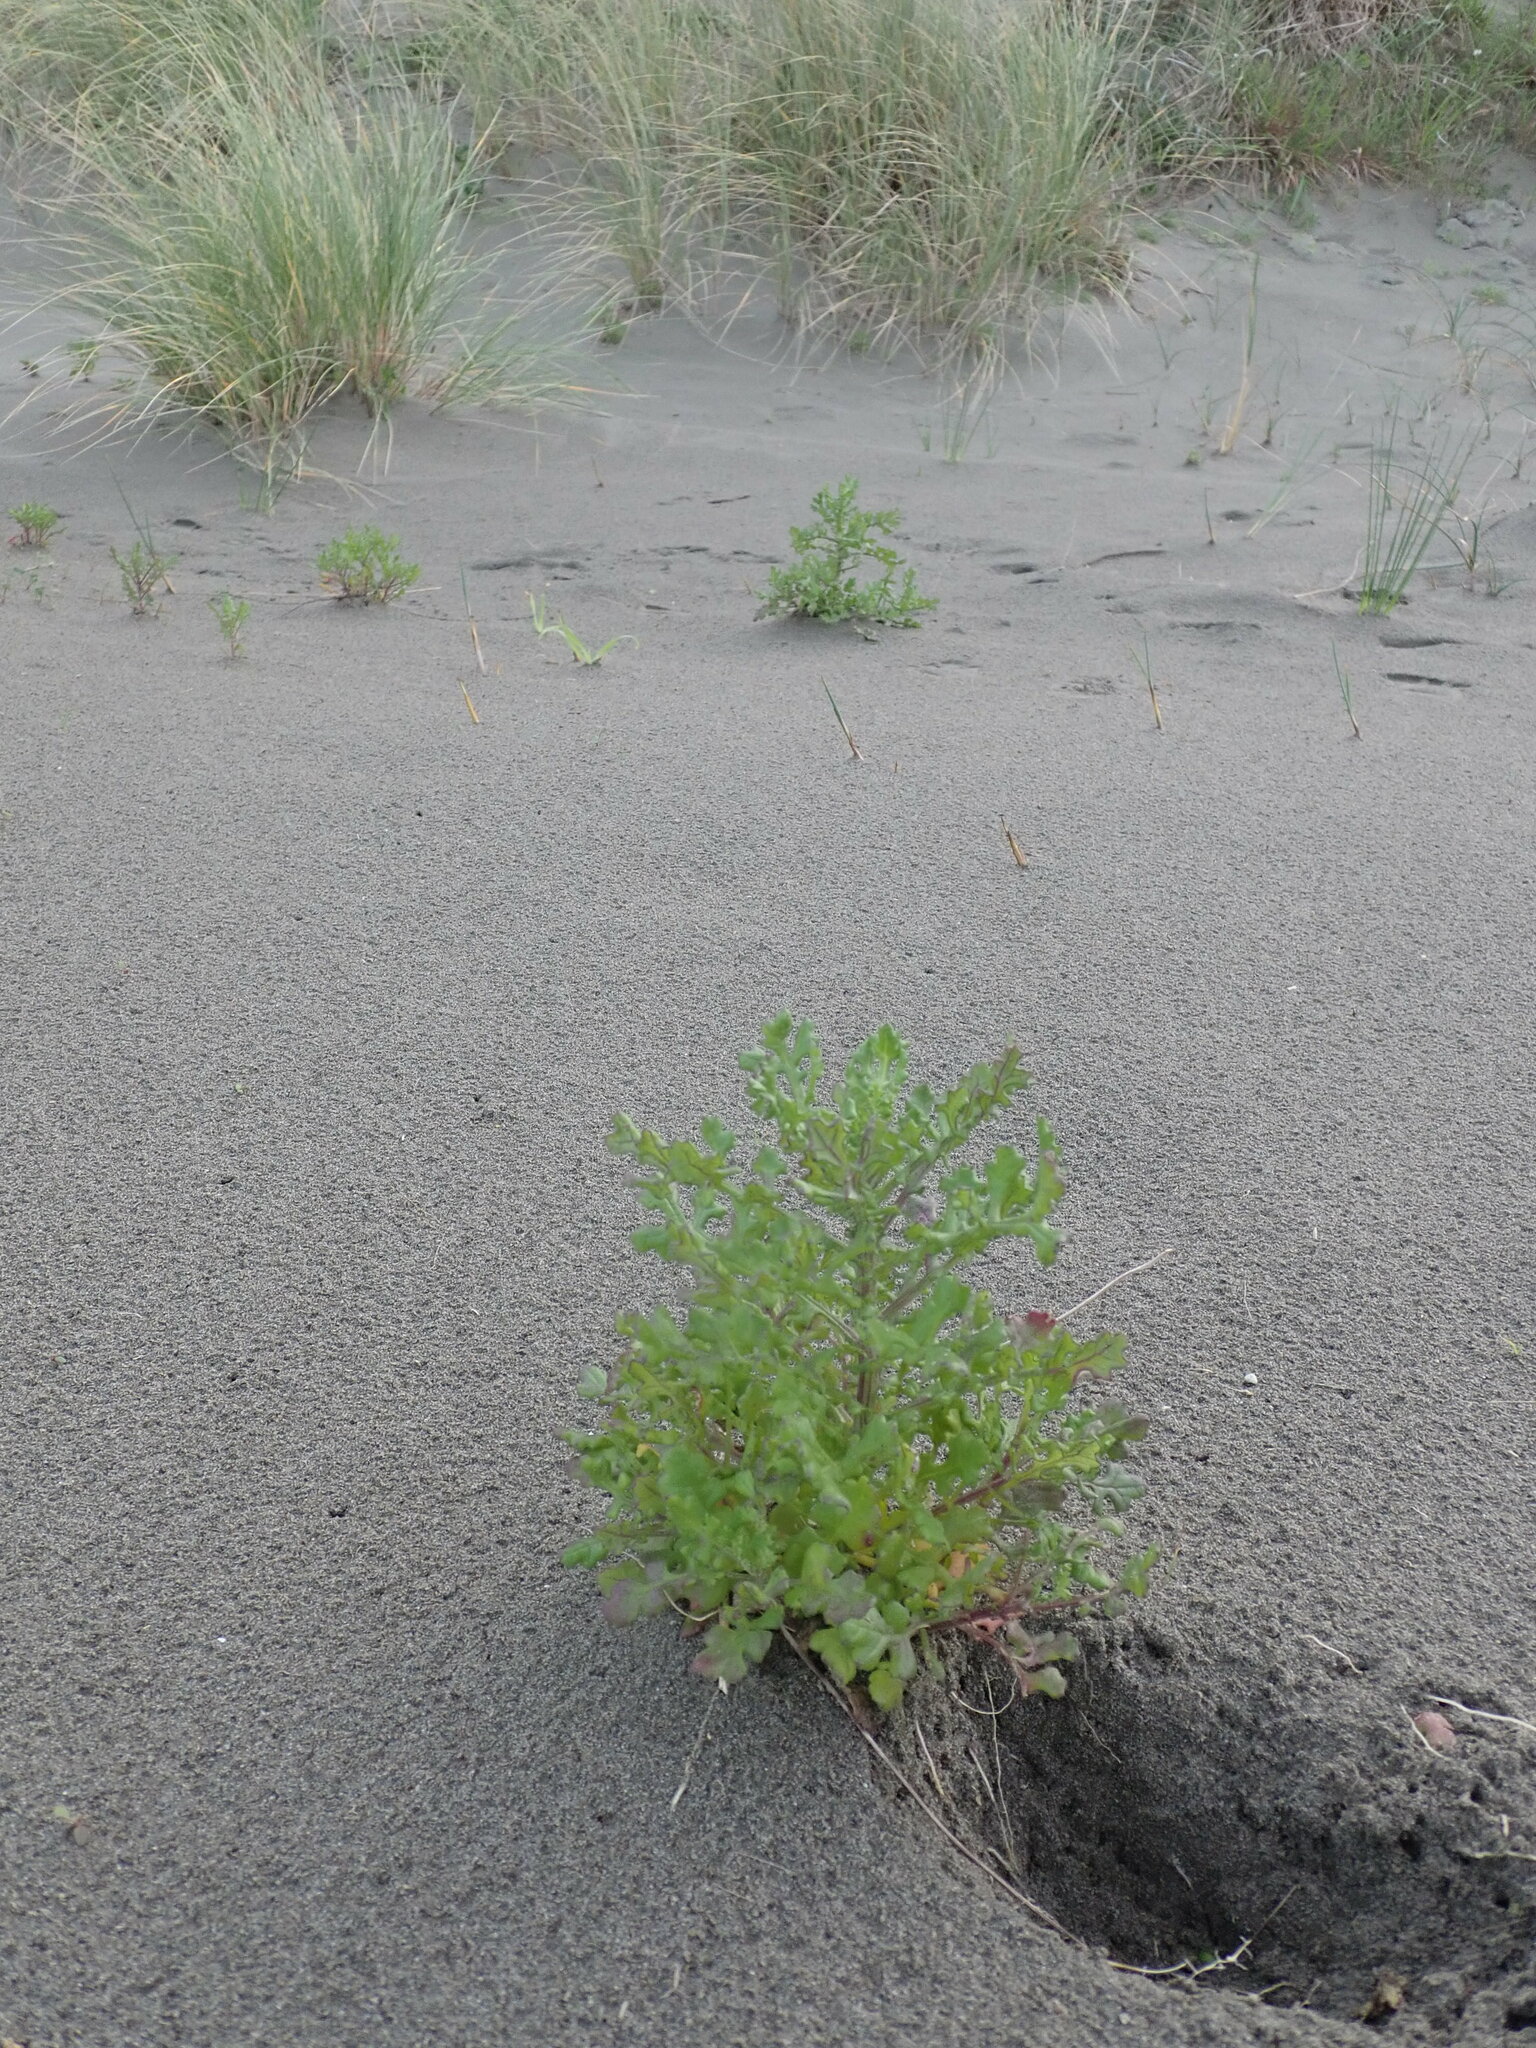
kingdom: Plantae
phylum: Tracheophyta
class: Magnoliopsida
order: Asterales
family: Asteraceae
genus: Senecio
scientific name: Senecio elegans
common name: Purple groundsel
